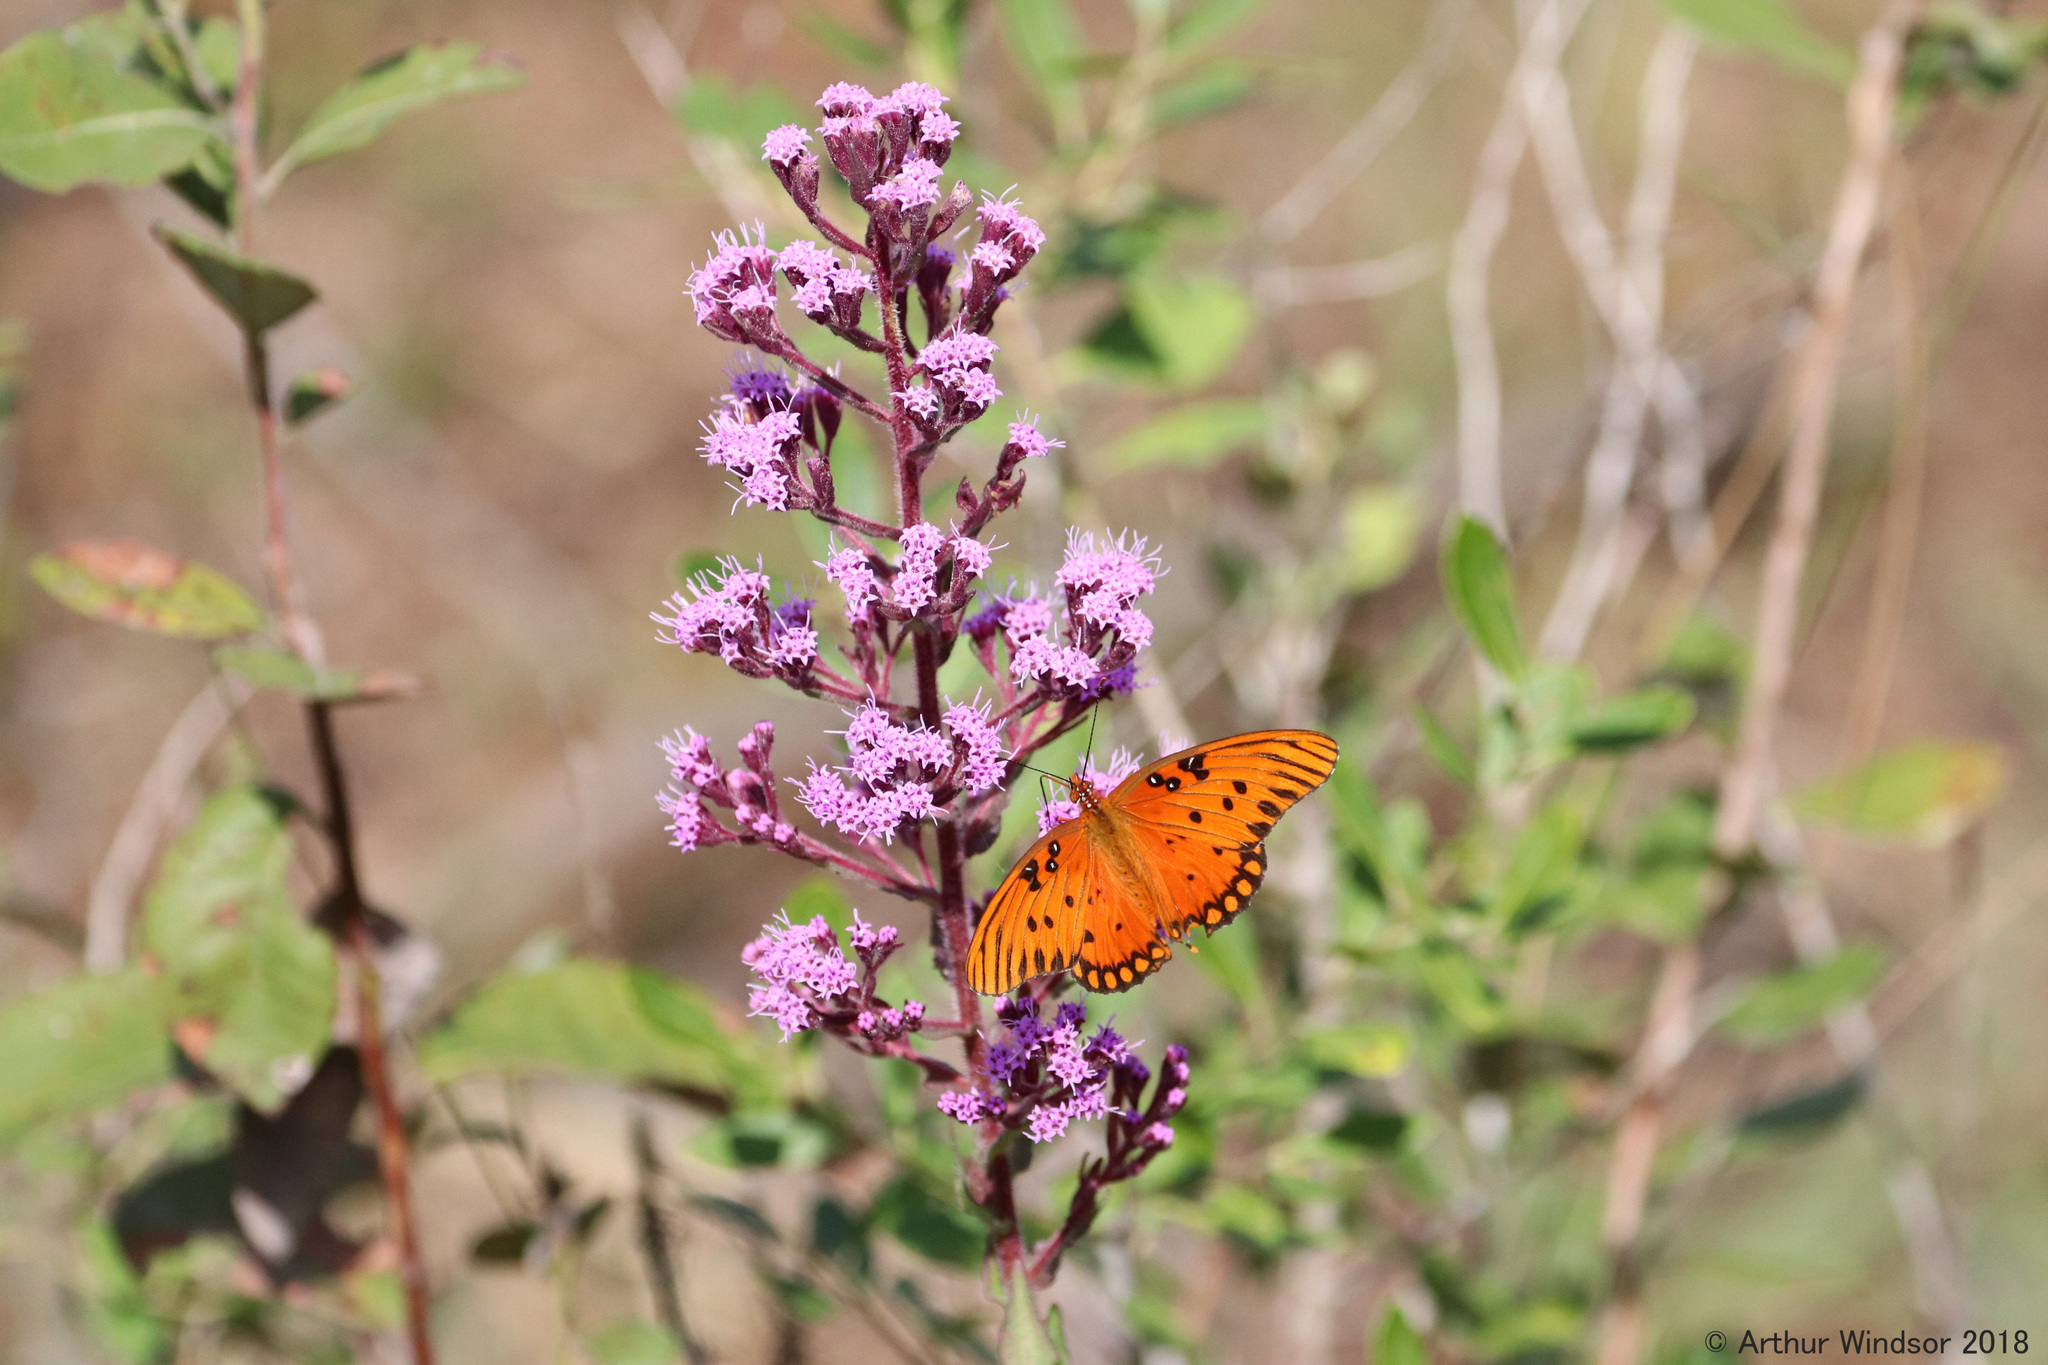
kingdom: Animalia
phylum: Arthropoda
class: Insecta
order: Lepidoptera
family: Nymphalidae
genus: Dione
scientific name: Dione vanillae
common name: Gulf fritillary
